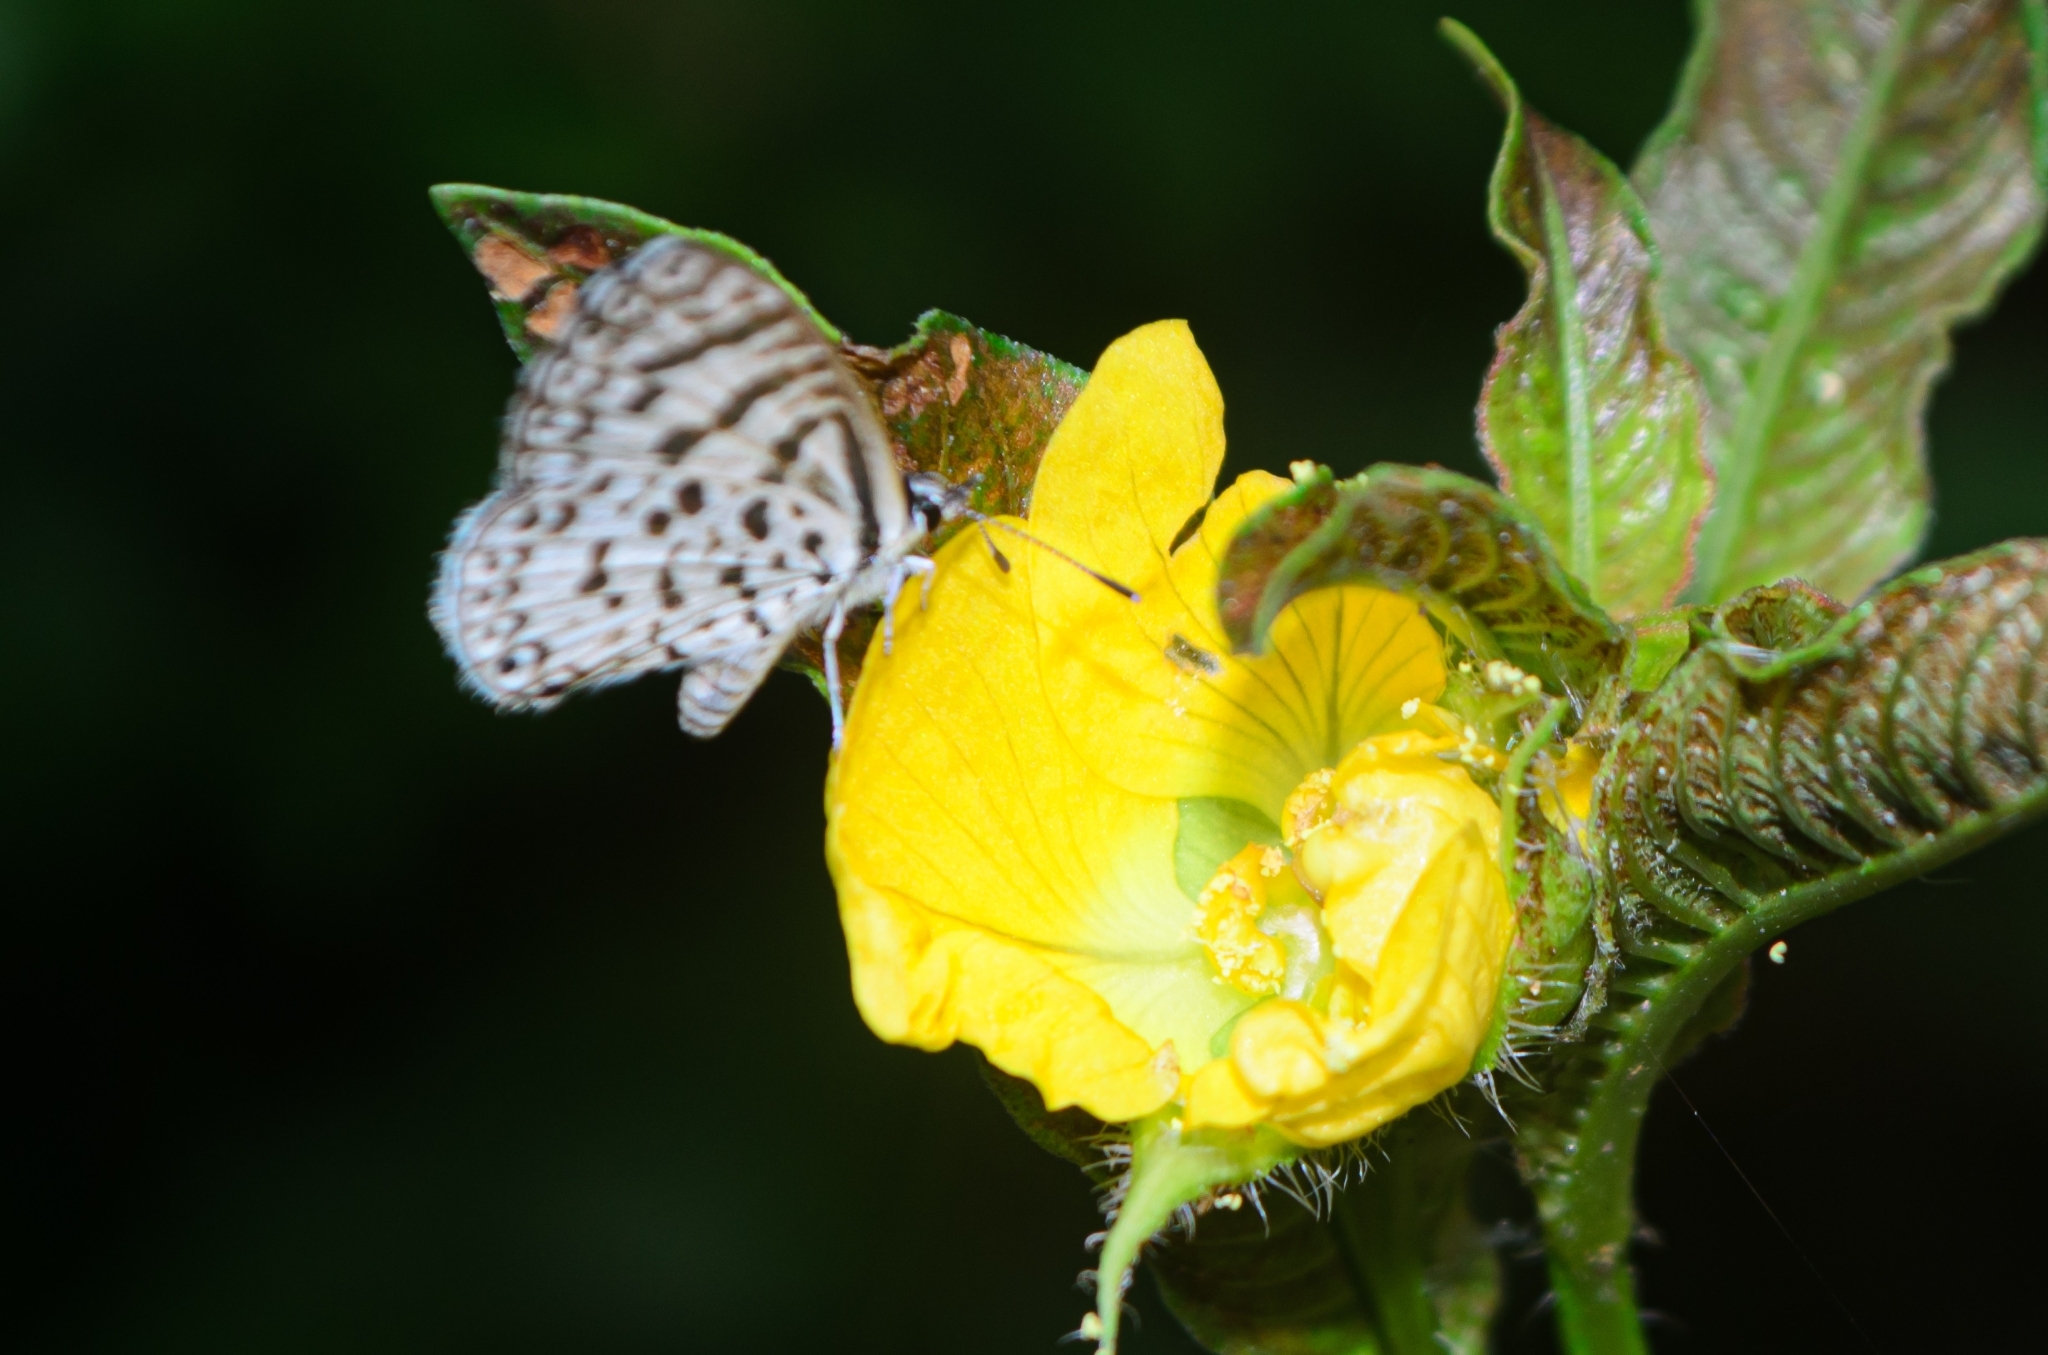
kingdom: Animalia
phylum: Arthropoda
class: Insecta
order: Lepidoptera
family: Lycaenidae
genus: Leptotes
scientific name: Leptotes cassius
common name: Cassius blue
